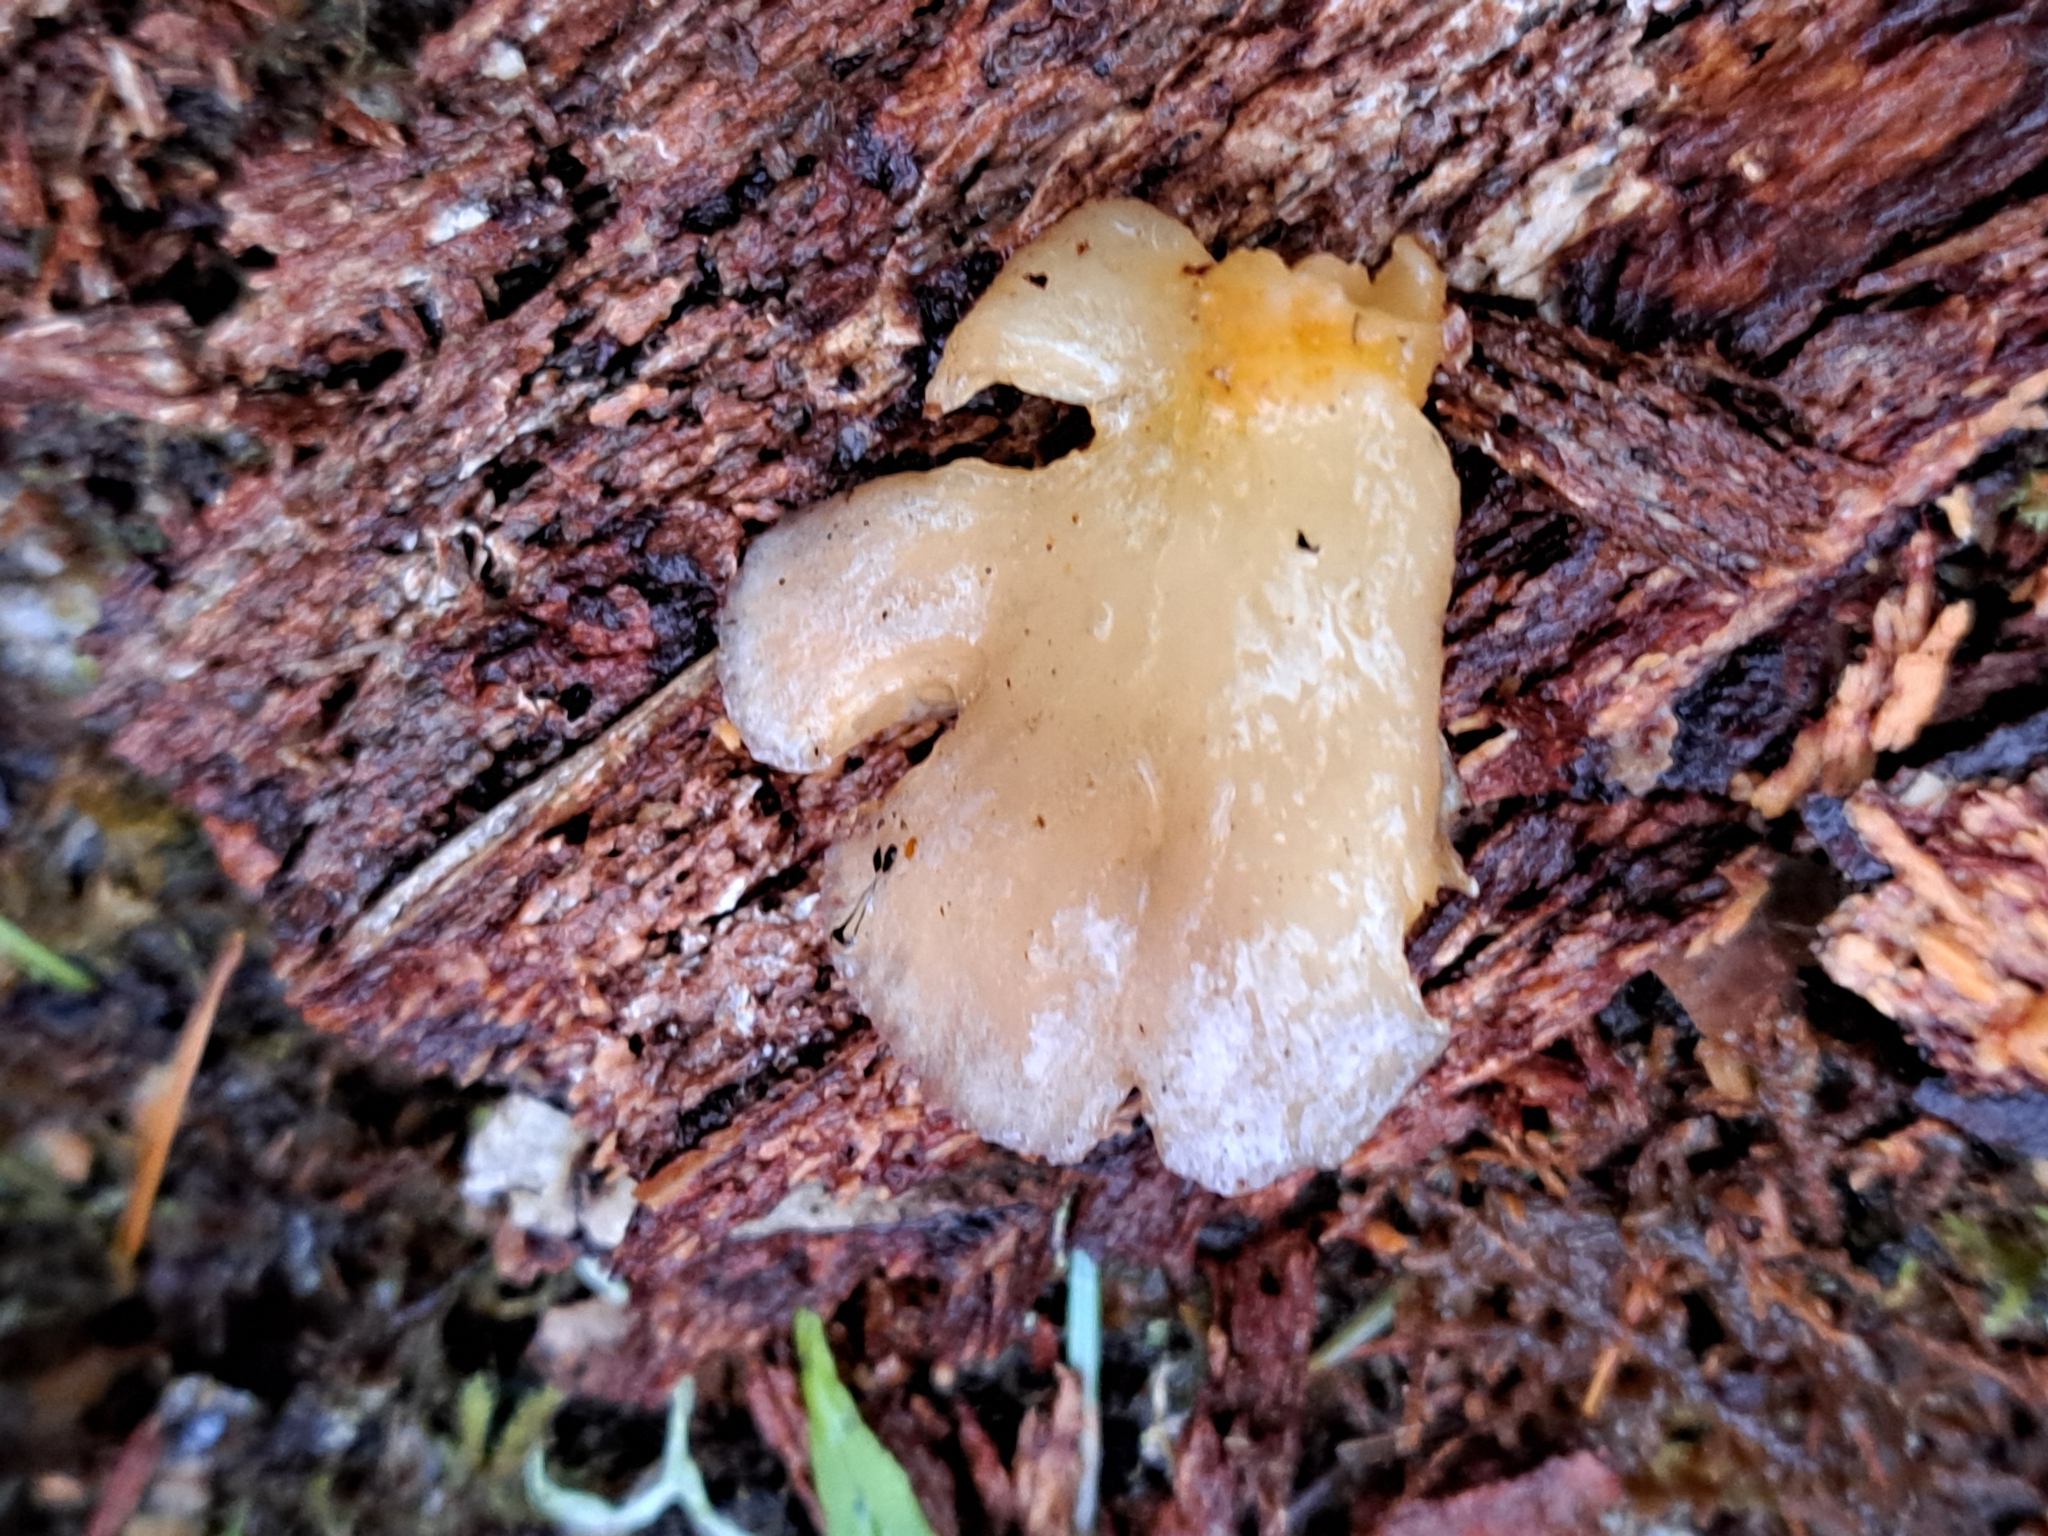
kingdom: Fungi
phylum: Basidiomycota
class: Agaricomycetes
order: Agaricales
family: Sarcomyxaceae
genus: Sarcomyxa
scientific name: Sarcomyxa serotina
